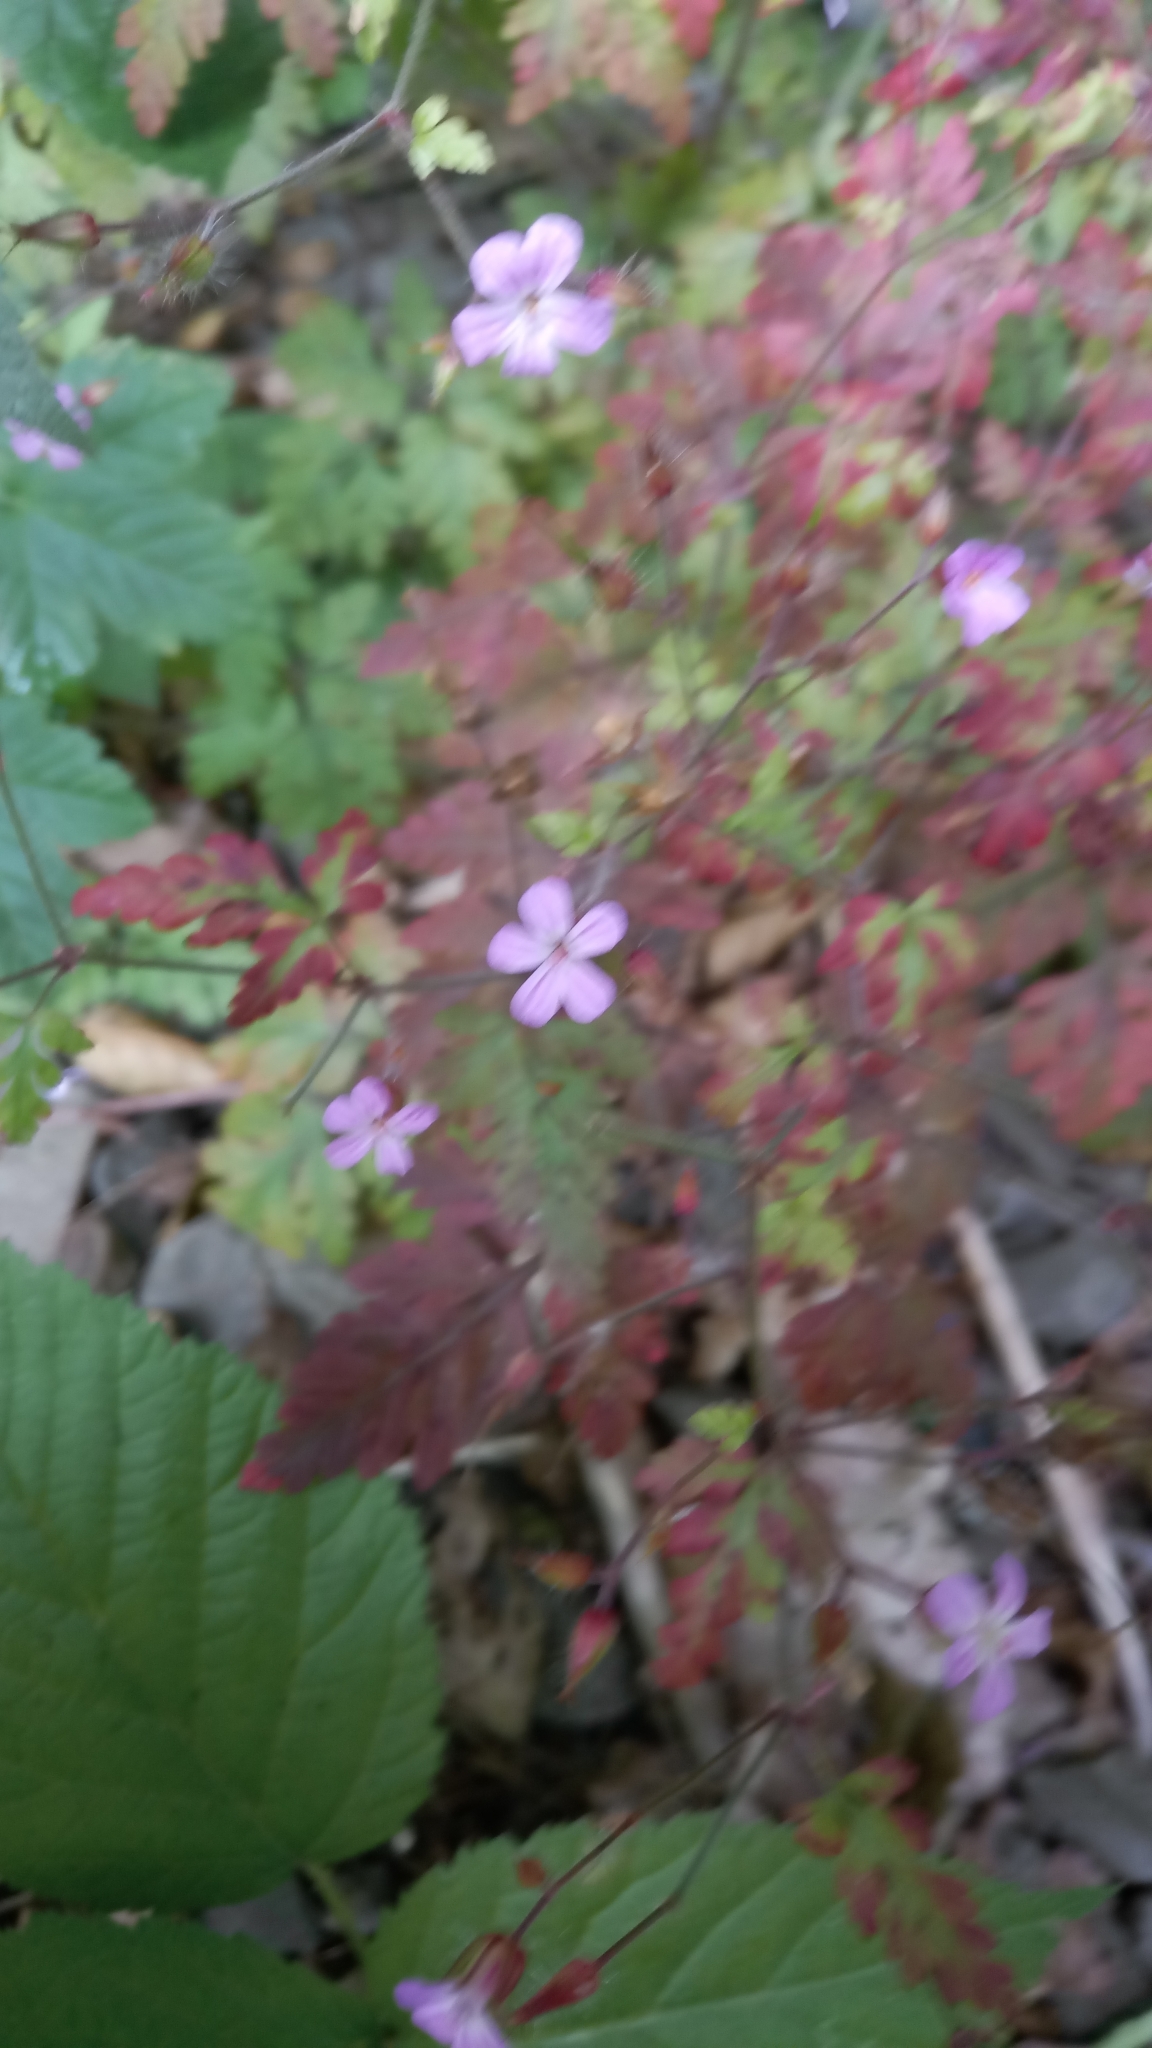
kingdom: Plantae
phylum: Tracheophyta
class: Magnoliopsida
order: Geraniales
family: Geraniaceae
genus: Geranium
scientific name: Geranium robertianum
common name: Herb-robert
